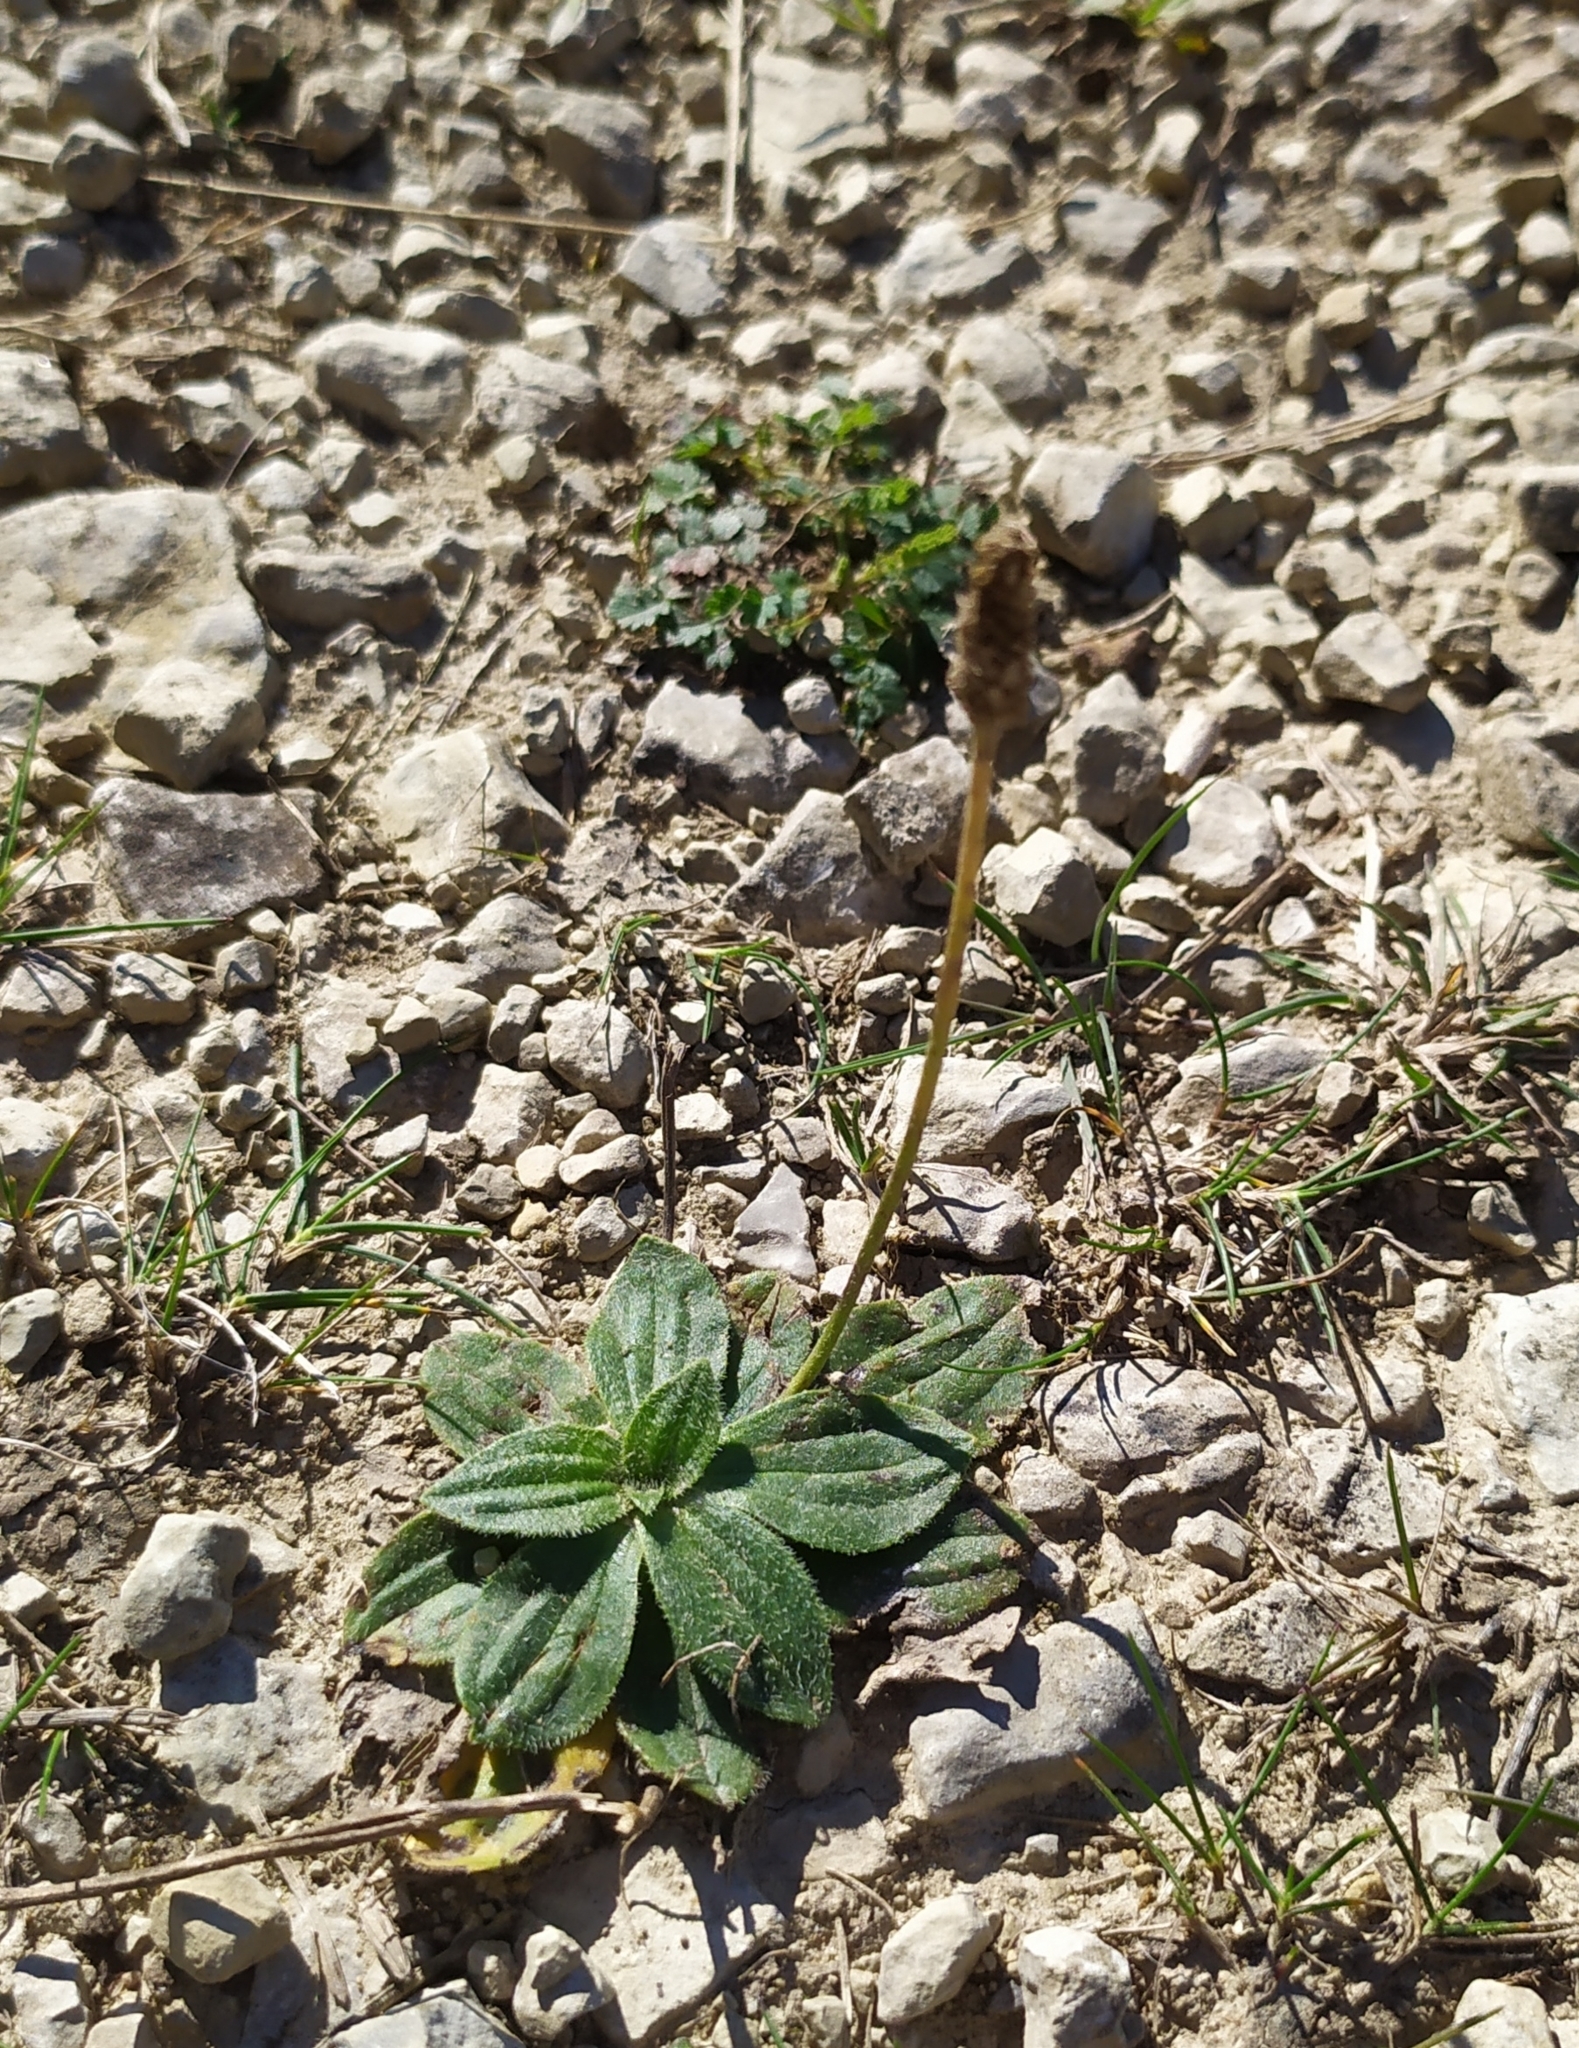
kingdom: Plantae
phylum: Tracheophyta
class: Magnoliopsida
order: Lamiales
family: Plantaginaceae
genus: Plantago
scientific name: Plantago media
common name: Hoary plantain
